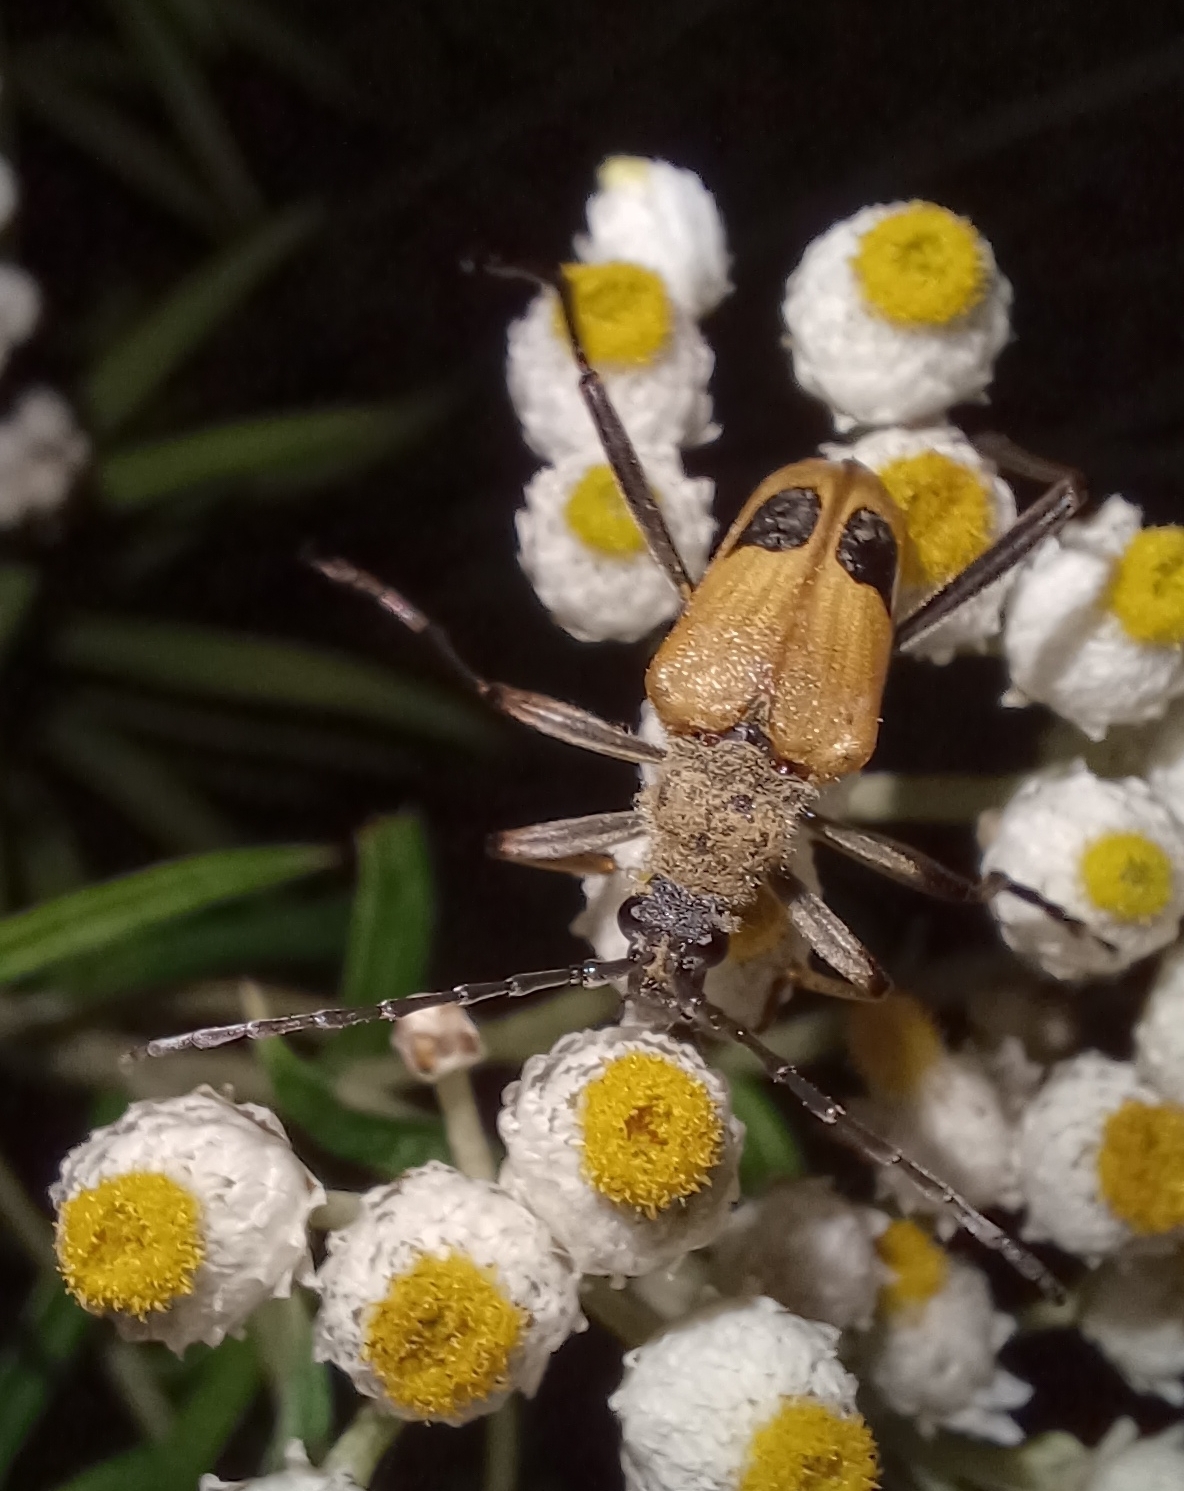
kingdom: Animalia
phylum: Arthropoda
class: Insecta
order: Coleoptera
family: Cerambycidae
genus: Pachyta
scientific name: Pachyta quadrimaculata
